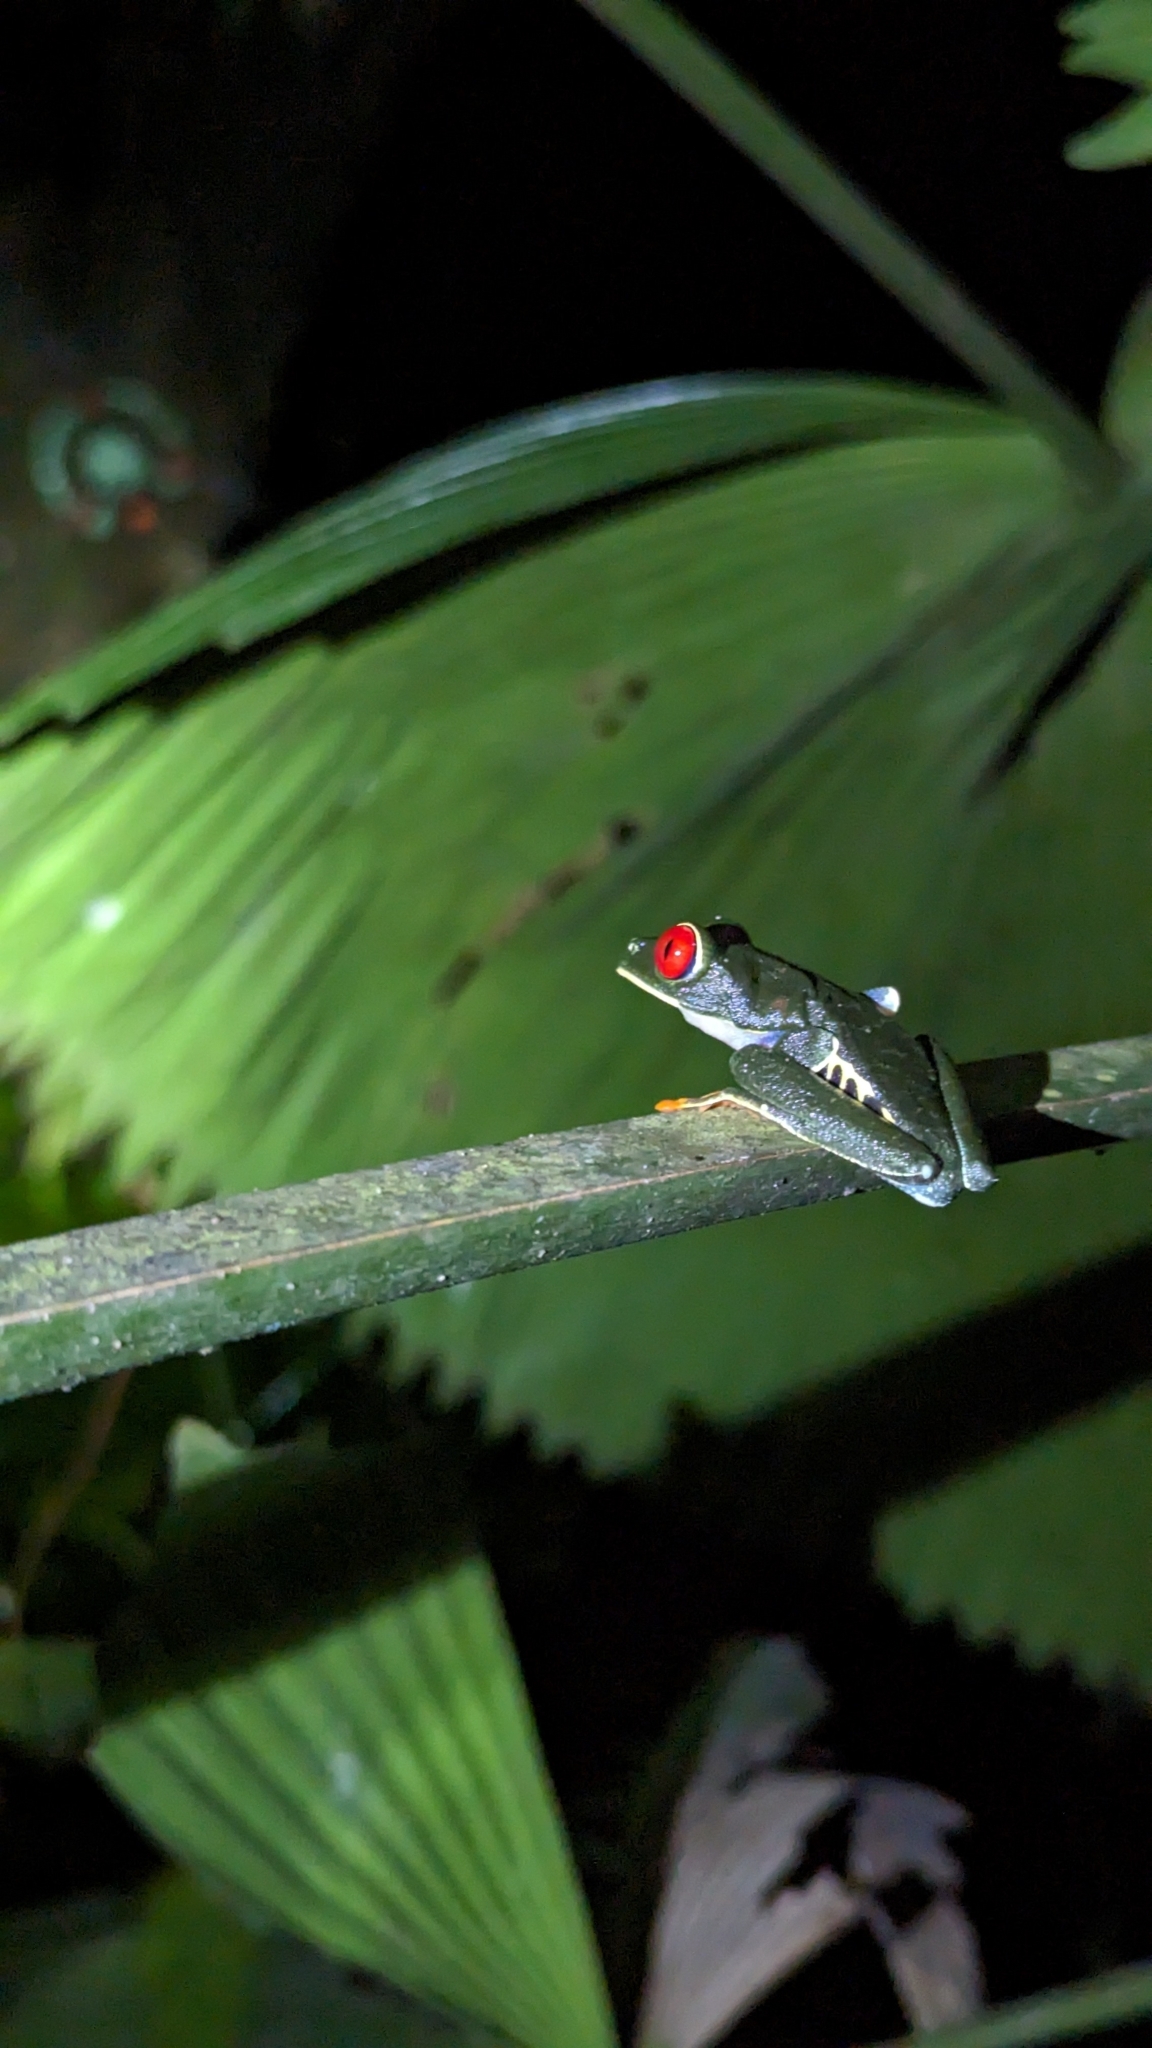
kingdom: Animalia
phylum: Chordata
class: Amphibia
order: Anura
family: Phyllomedusidae
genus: Agalychnis
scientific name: Agalychnis callidryas
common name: Red-eyed treefrog
